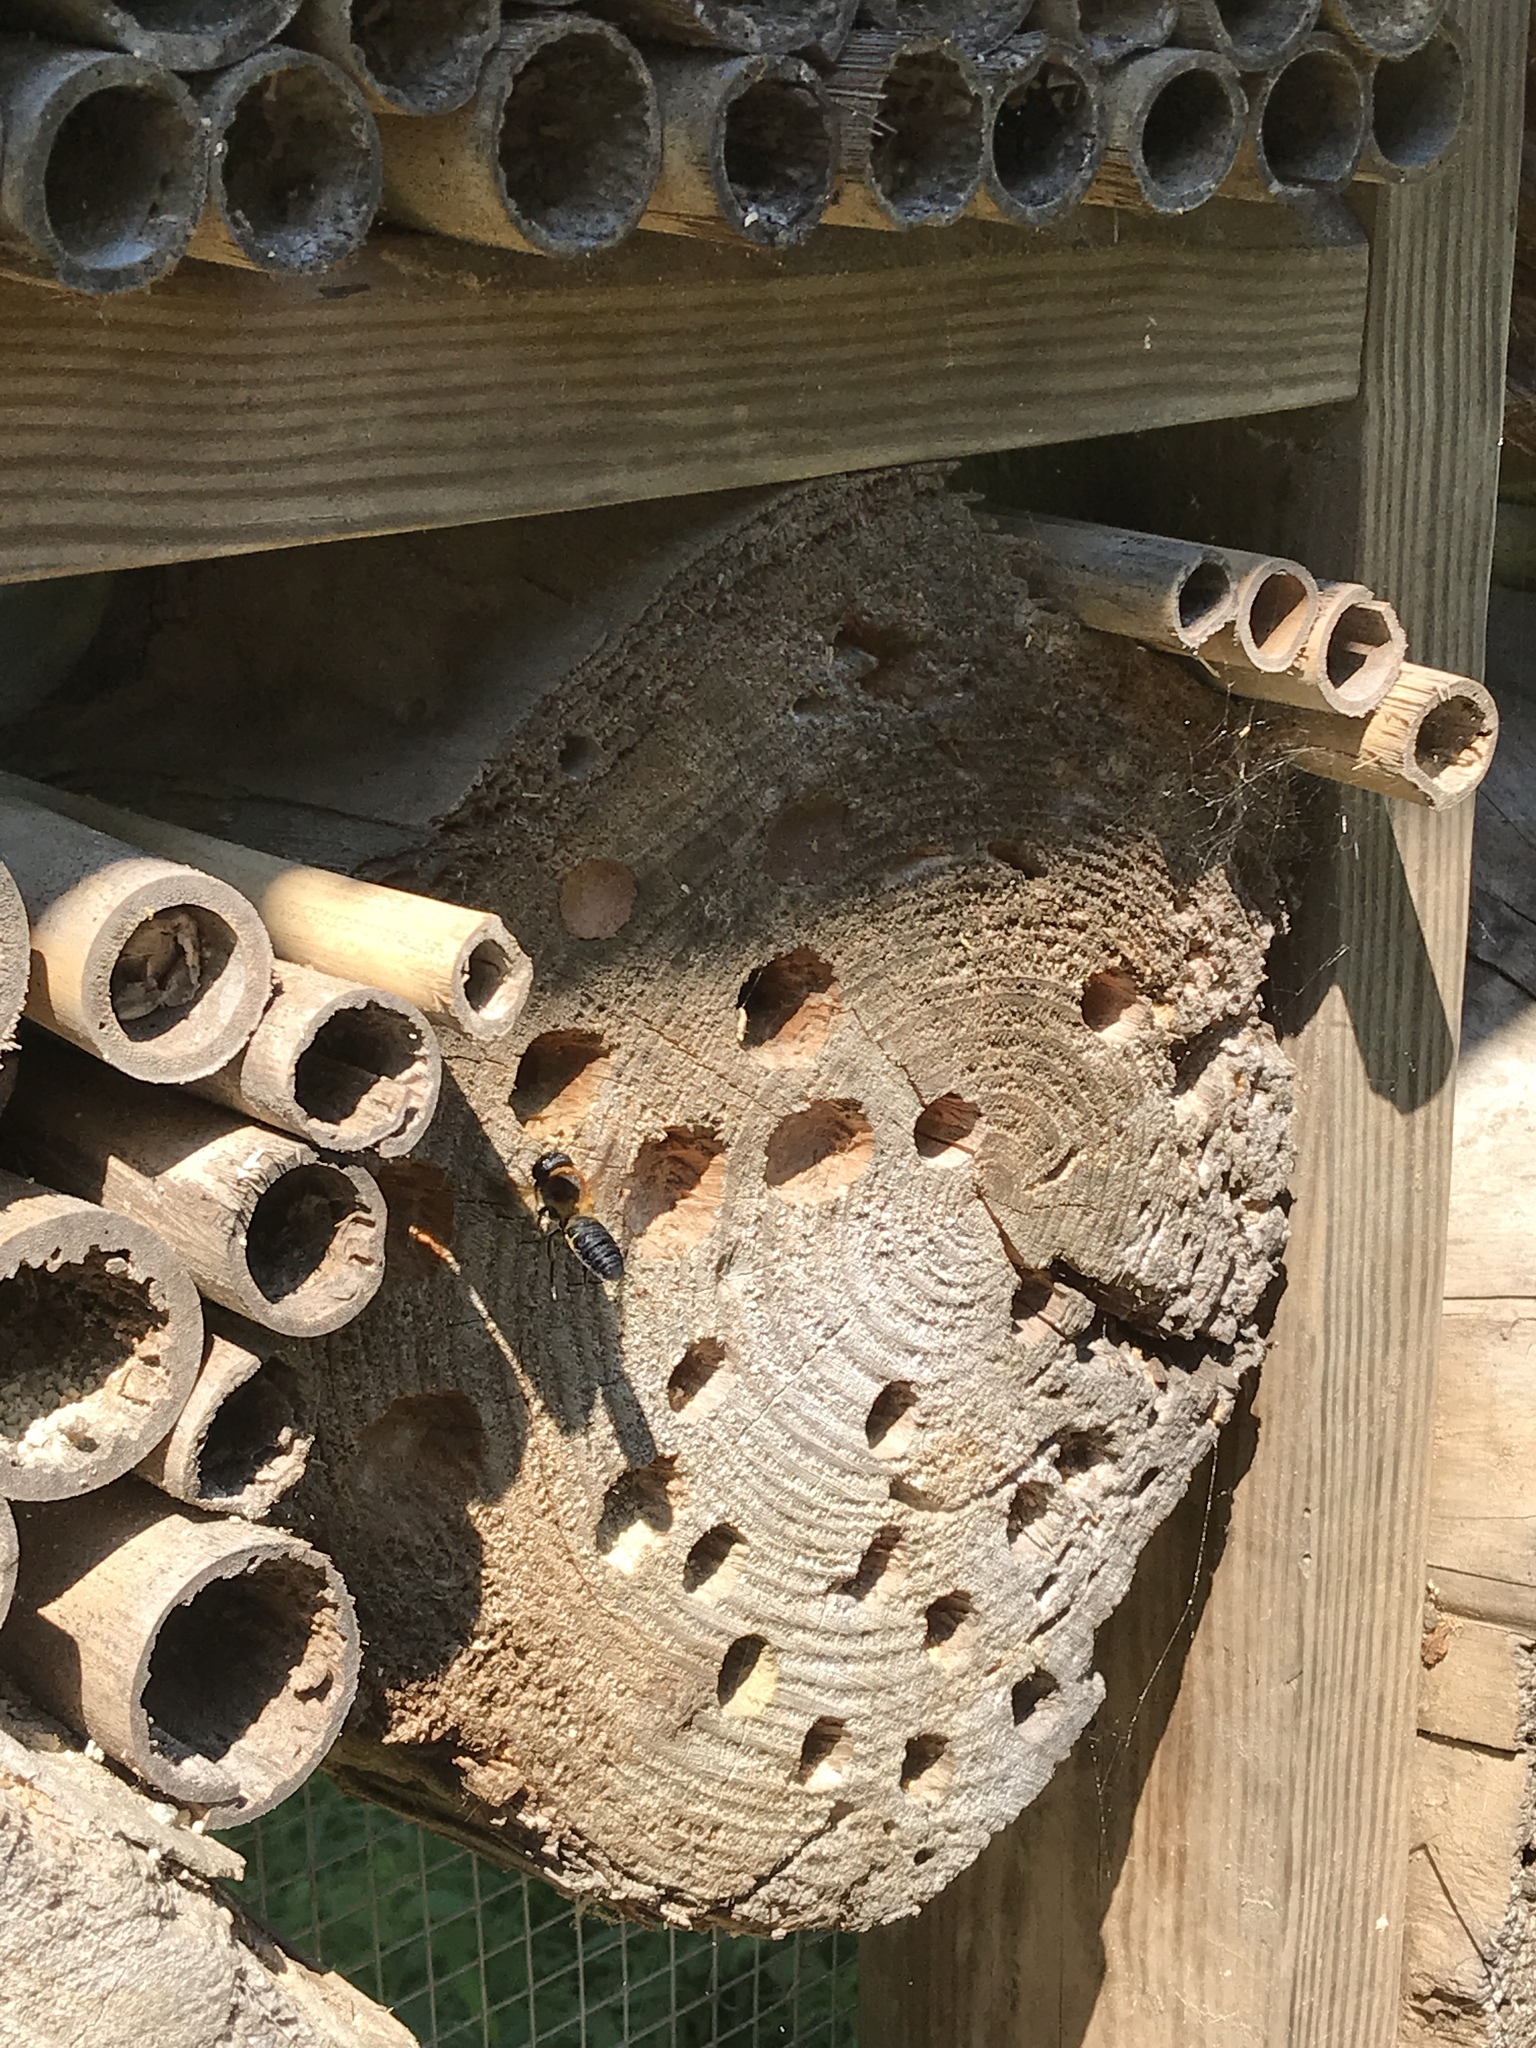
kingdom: Animalia
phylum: Arthropoda
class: Insecta
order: Hymenoptera
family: Megachilidae
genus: Megachile
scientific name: Megachile sculpturalis
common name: Sculptured resin bee
